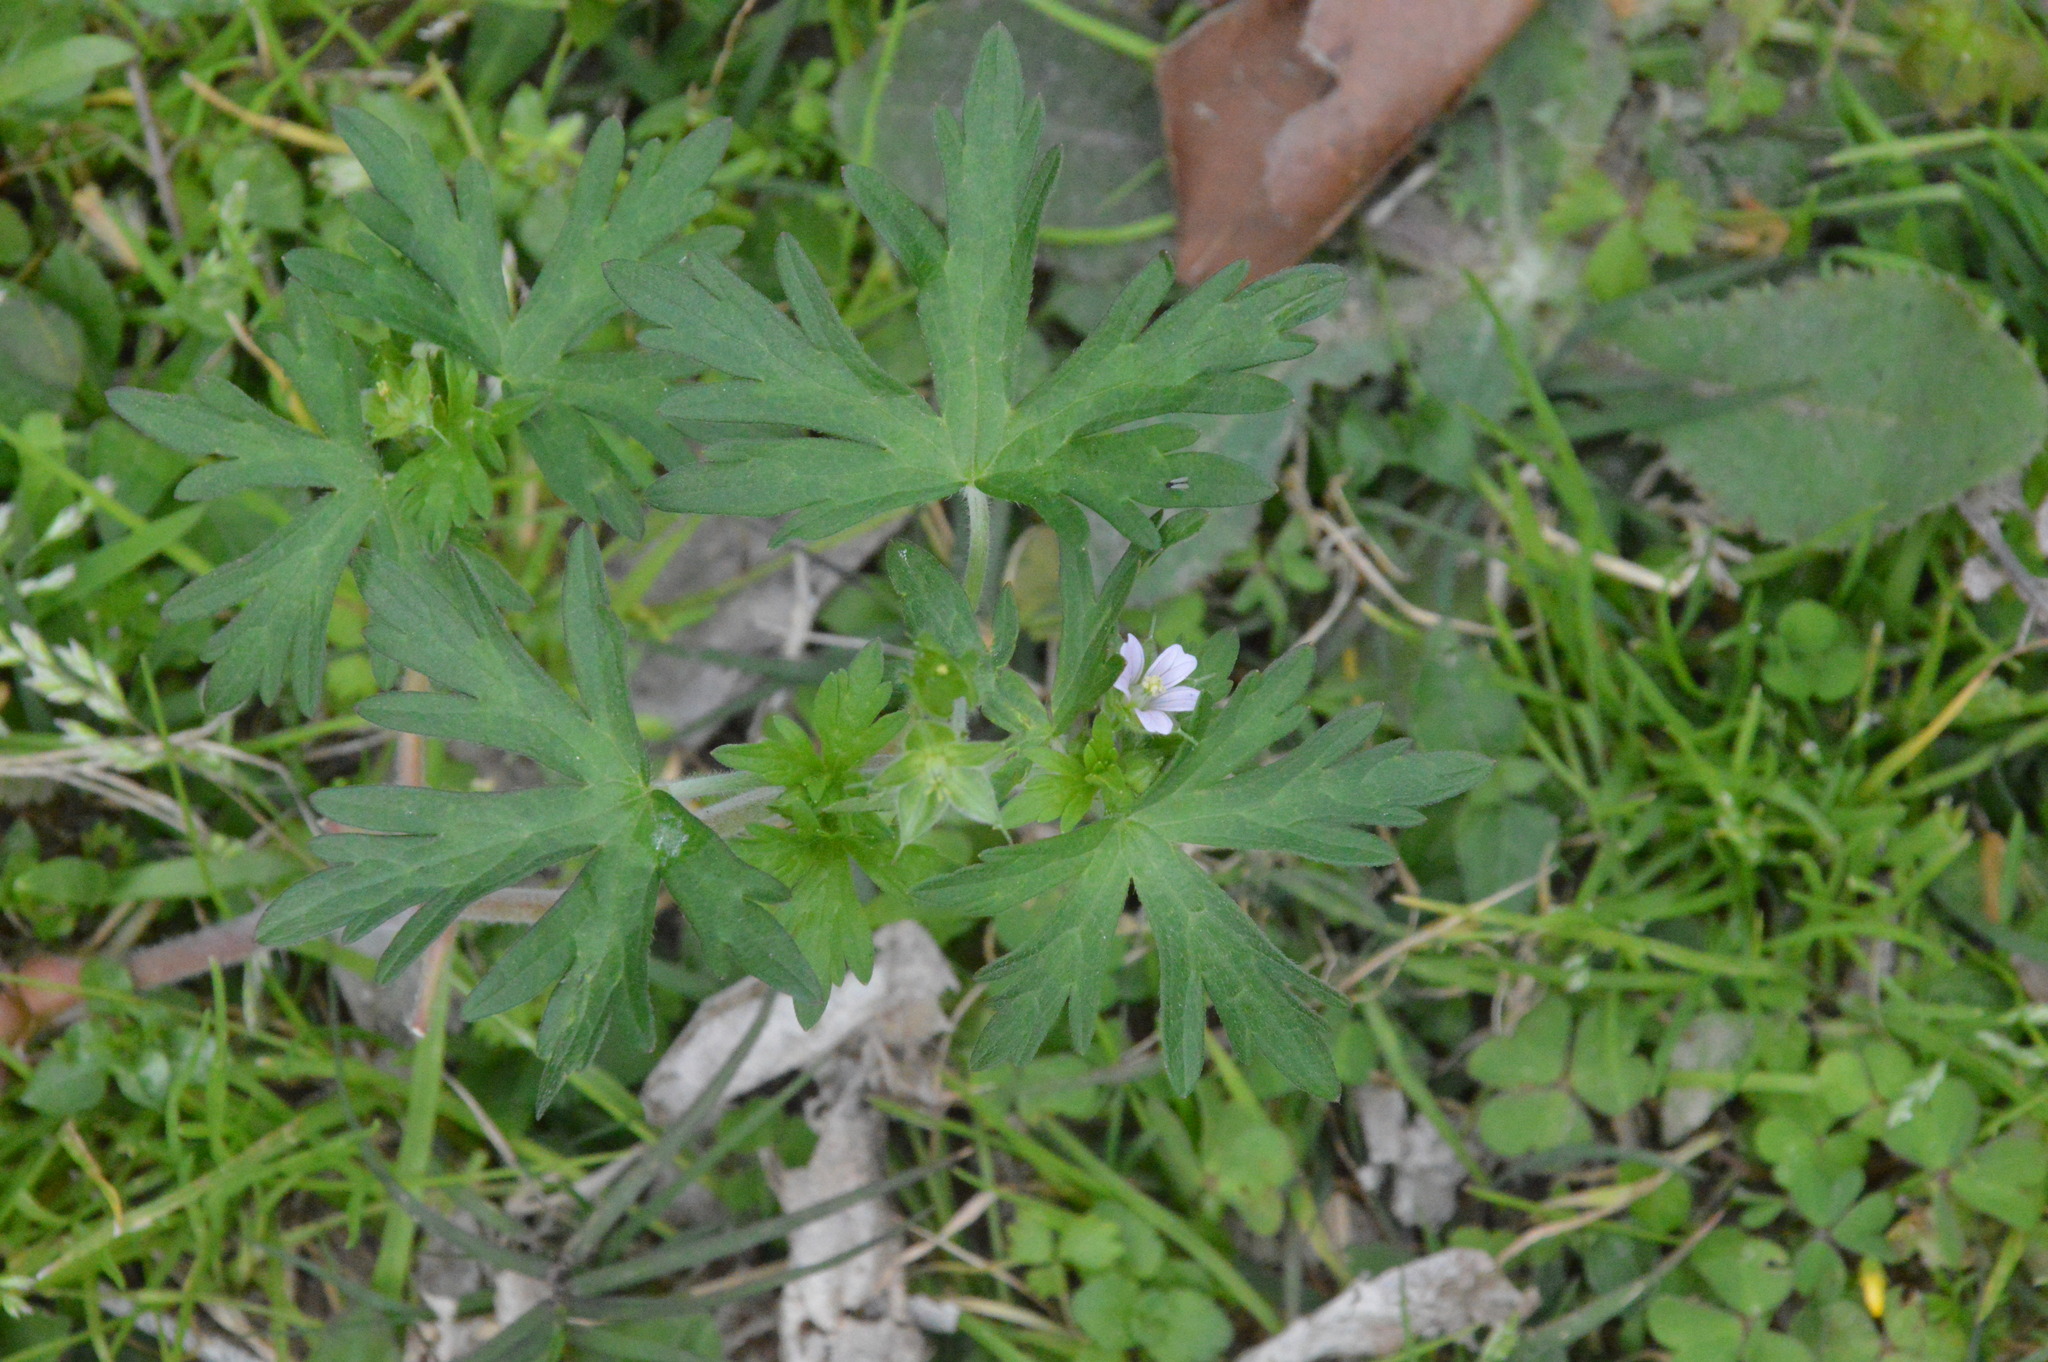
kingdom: Plantae
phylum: Tracheophyta
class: Magnoliopsida
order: Geraniales
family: Geraniaceae
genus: Geranium
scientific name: Geranium carolinianum
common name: Carolina crane's-bill
